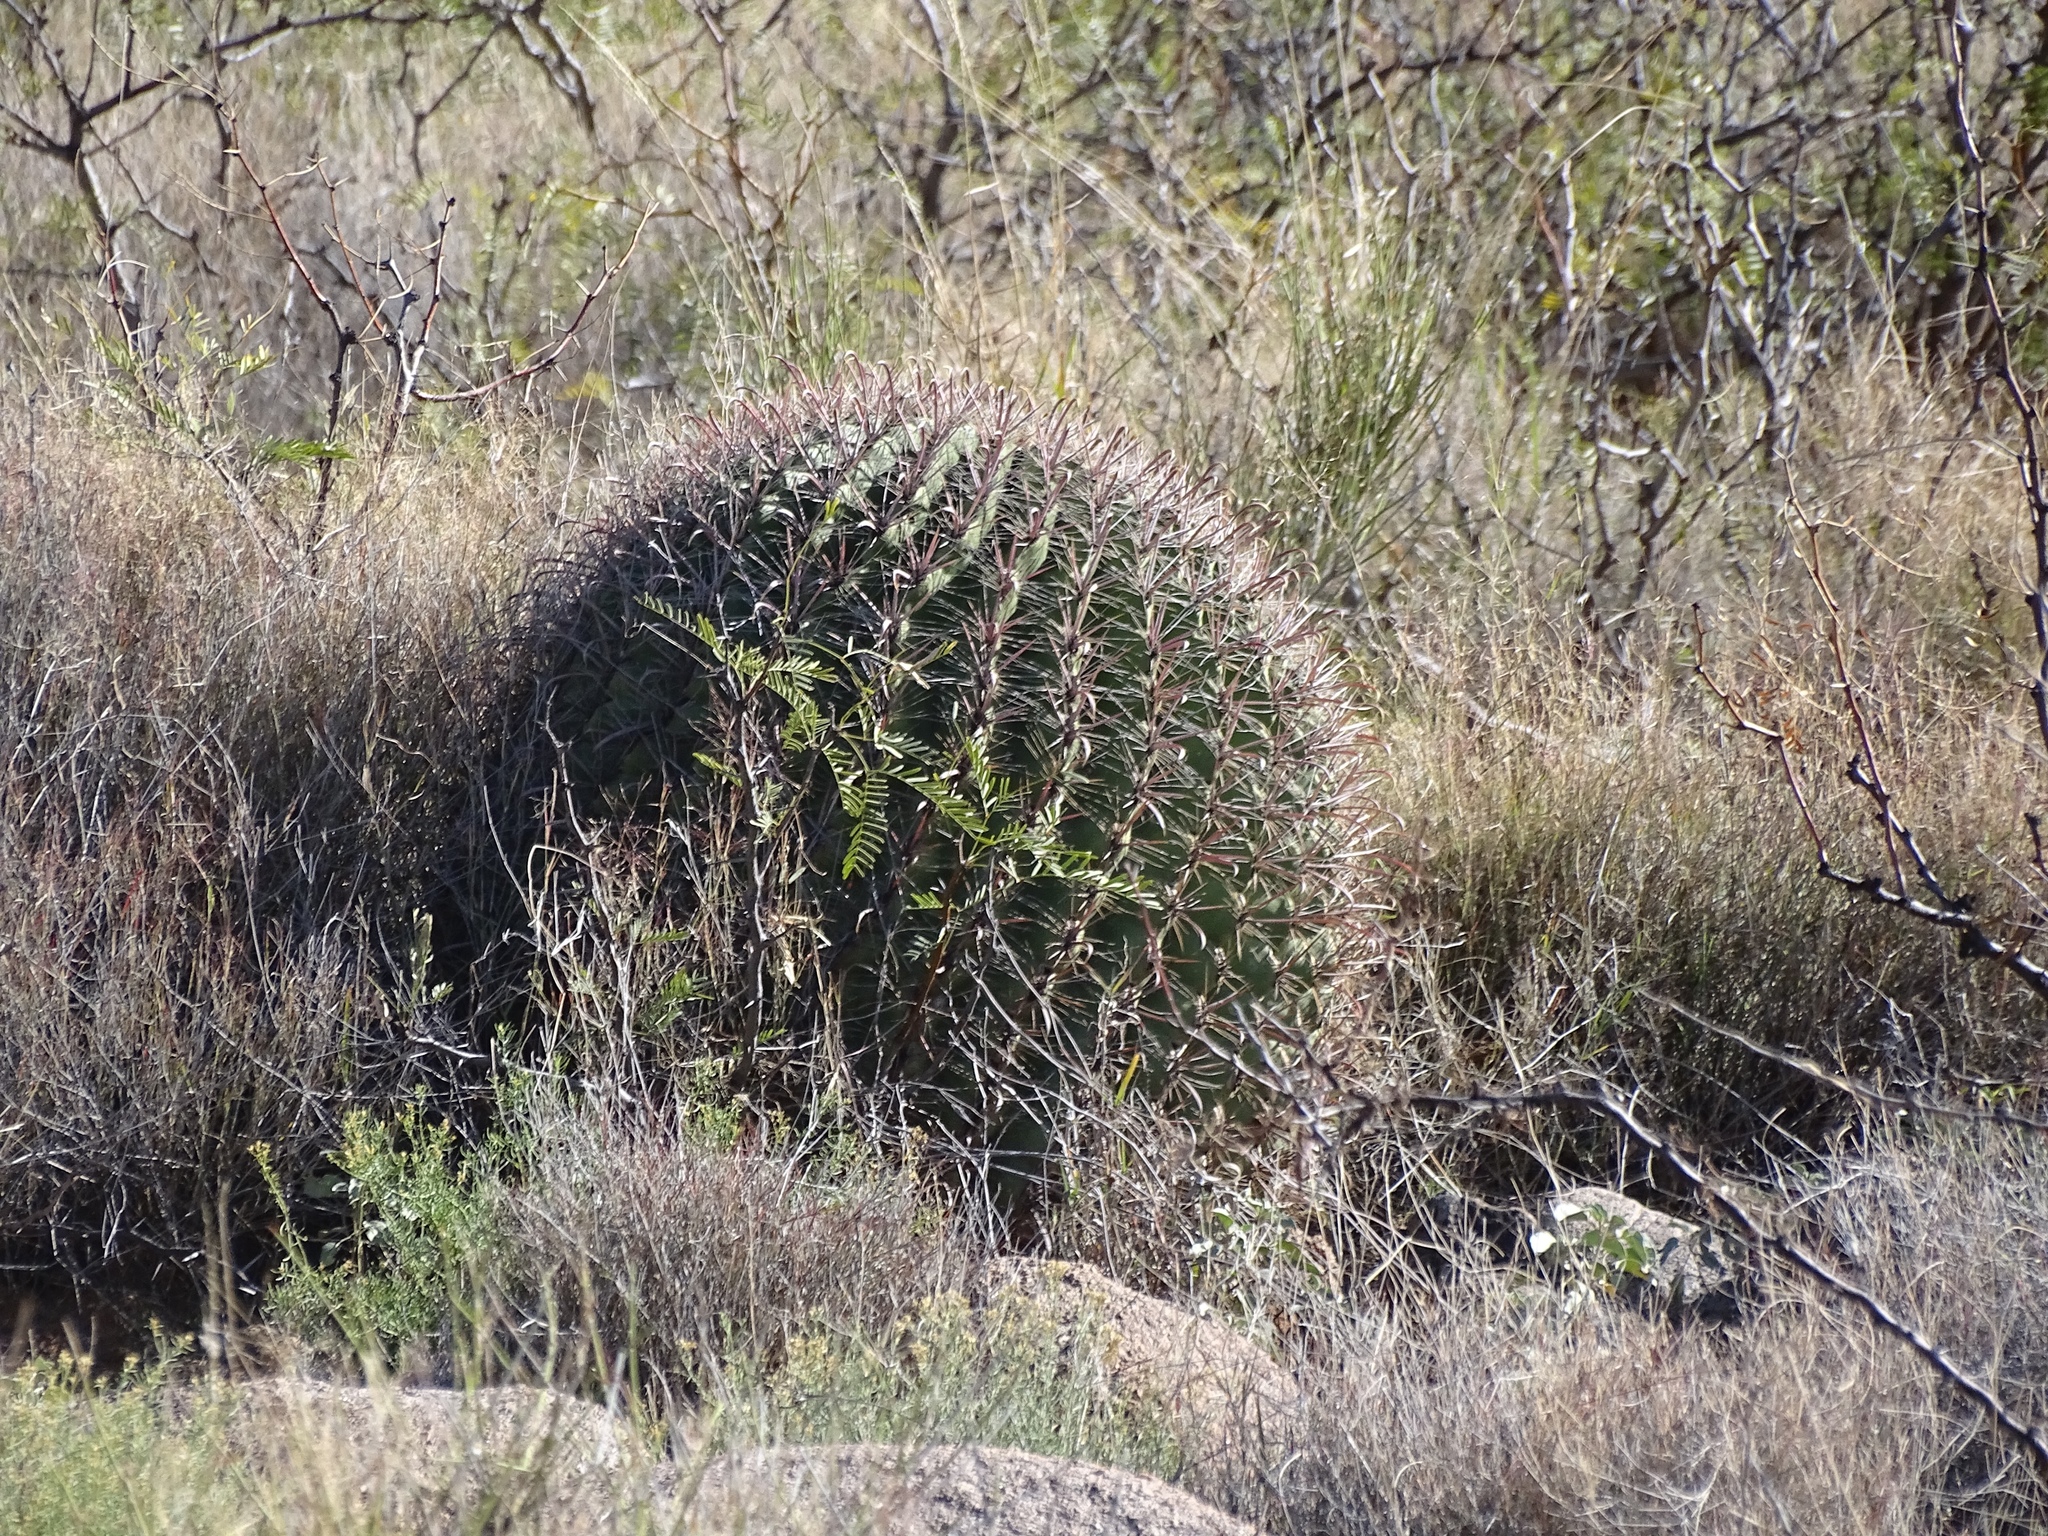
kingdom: Plantae
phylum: Tracheophyta
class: Magnoliopsida
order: Caryophyllales
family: Cactaceae
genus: Ferocactus
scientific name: Ferocactus wislizeni
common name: Candy barrel cactus
